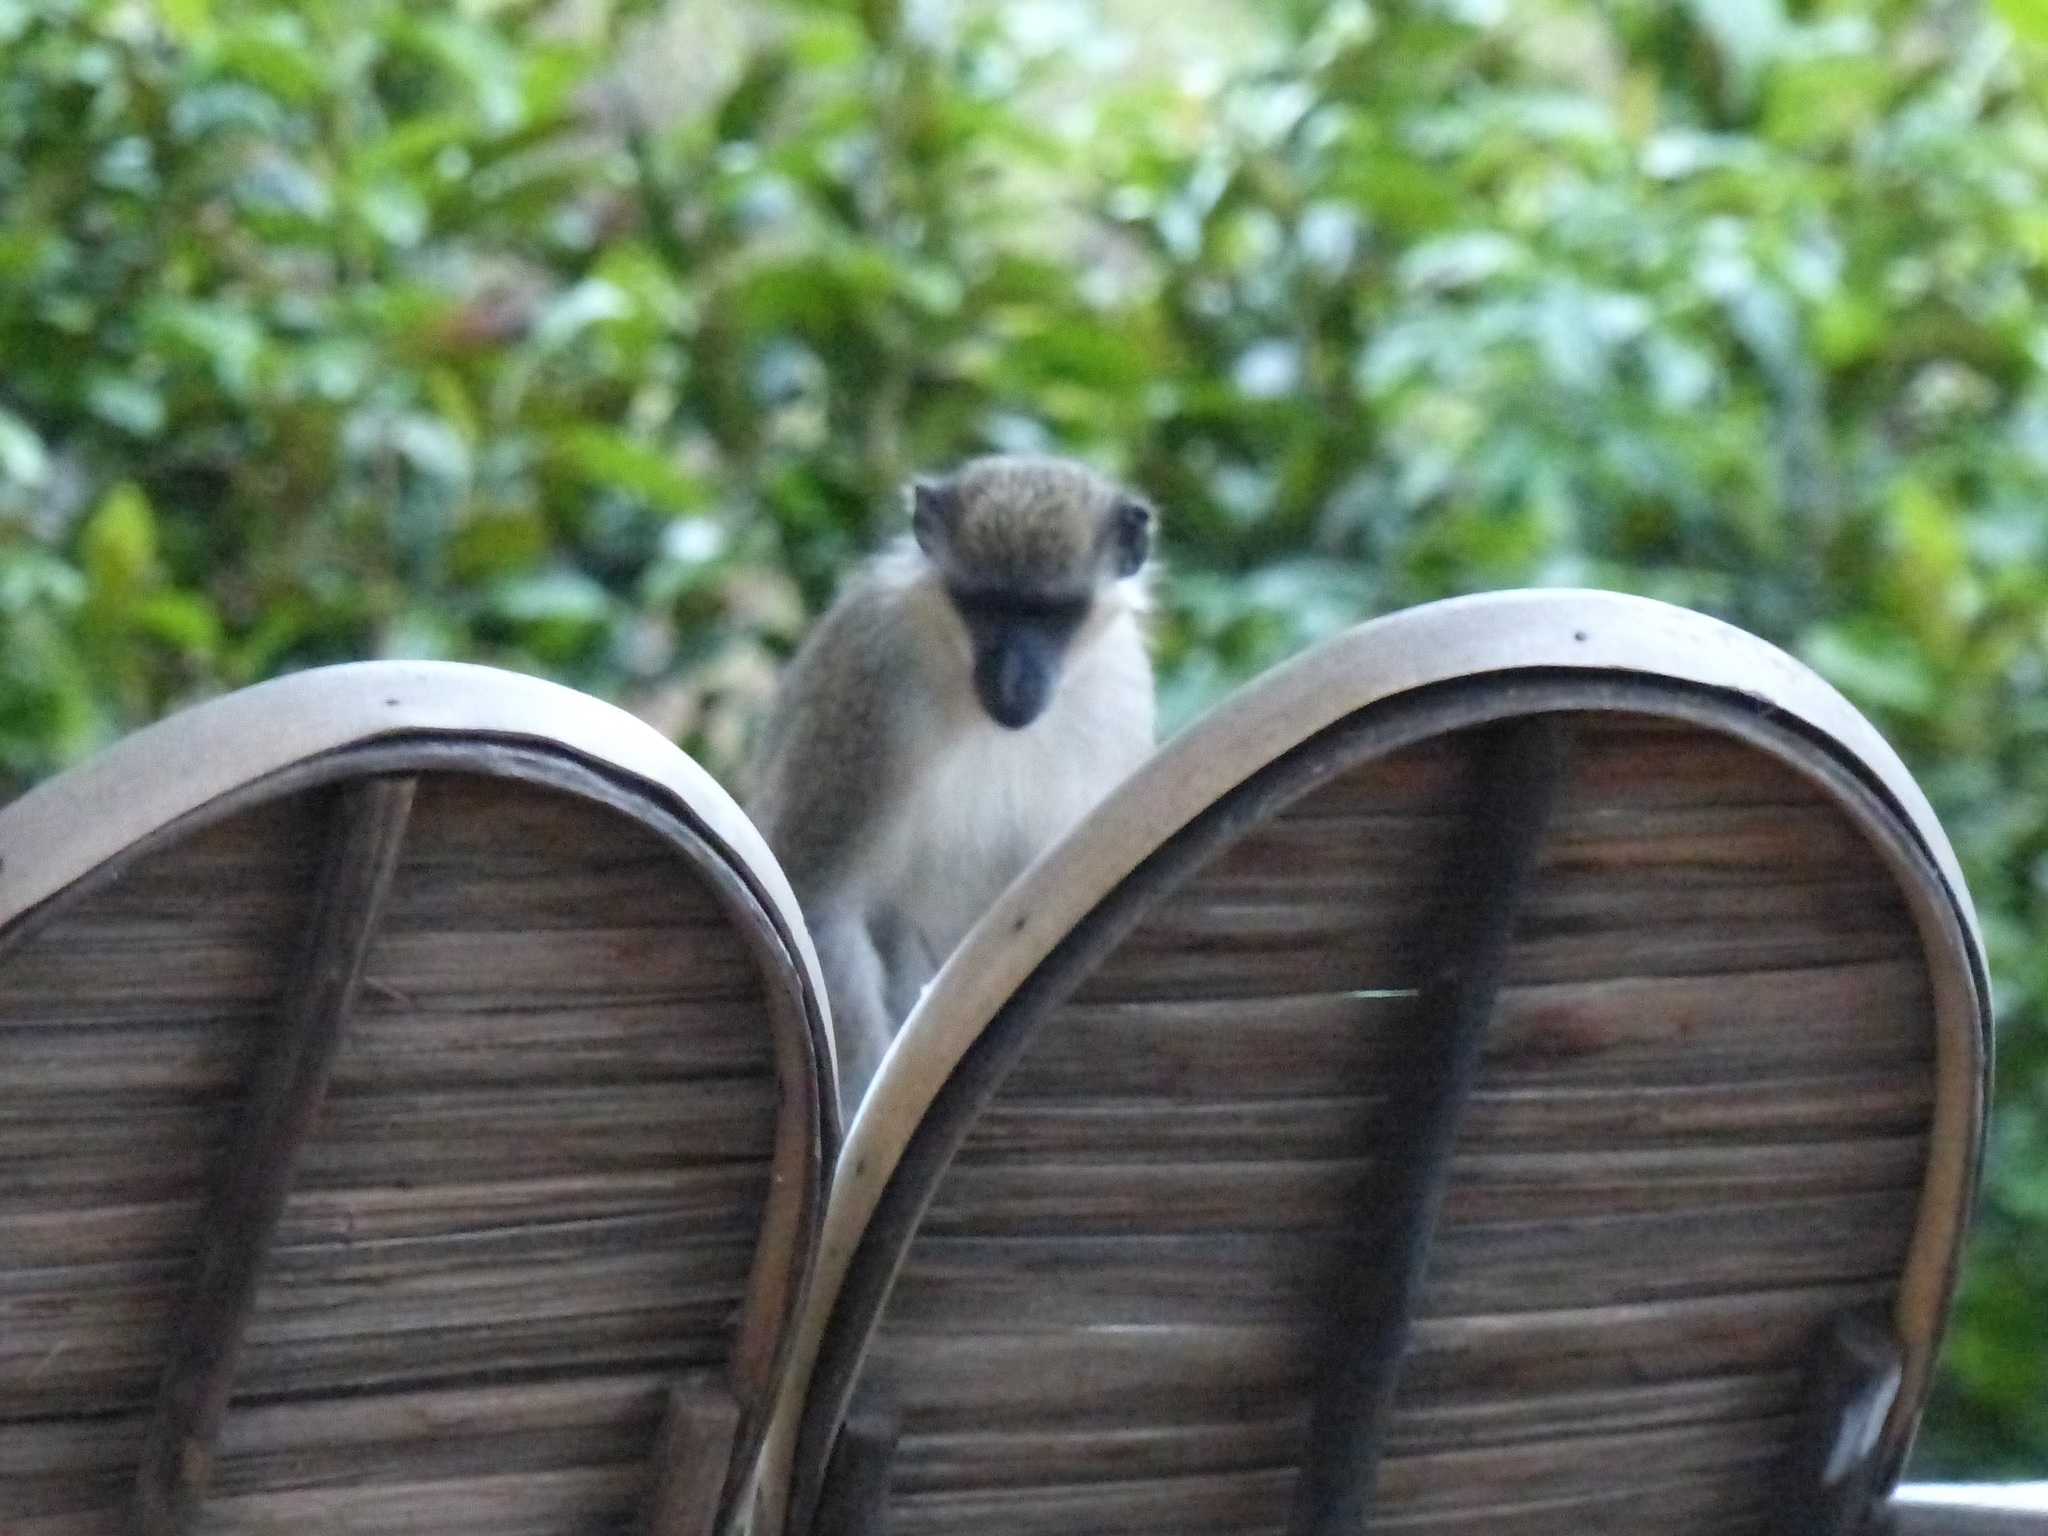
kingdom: Animalia
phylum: Chordata
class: Mammalia
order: Primates
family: Cercopithecidae
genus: Chlorocebus
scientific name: Chlorocebus sabaeus
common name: Green monkey
